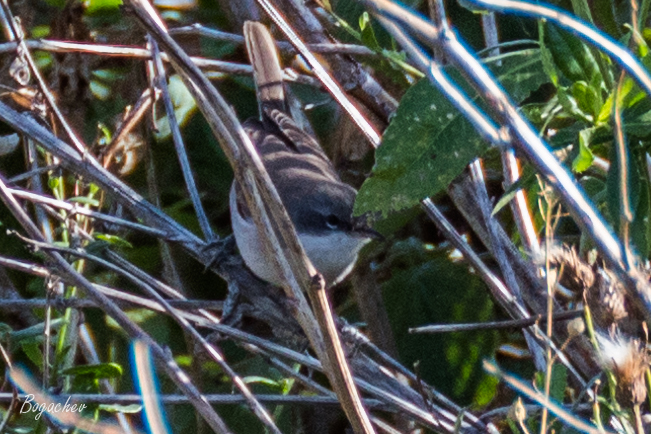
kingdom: Animalia
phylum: Chordata
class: Aves
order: Passeriformes
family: Sylviidae
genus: Sylvia
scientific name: Sylvia curruca
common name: Lesser whitethroat
